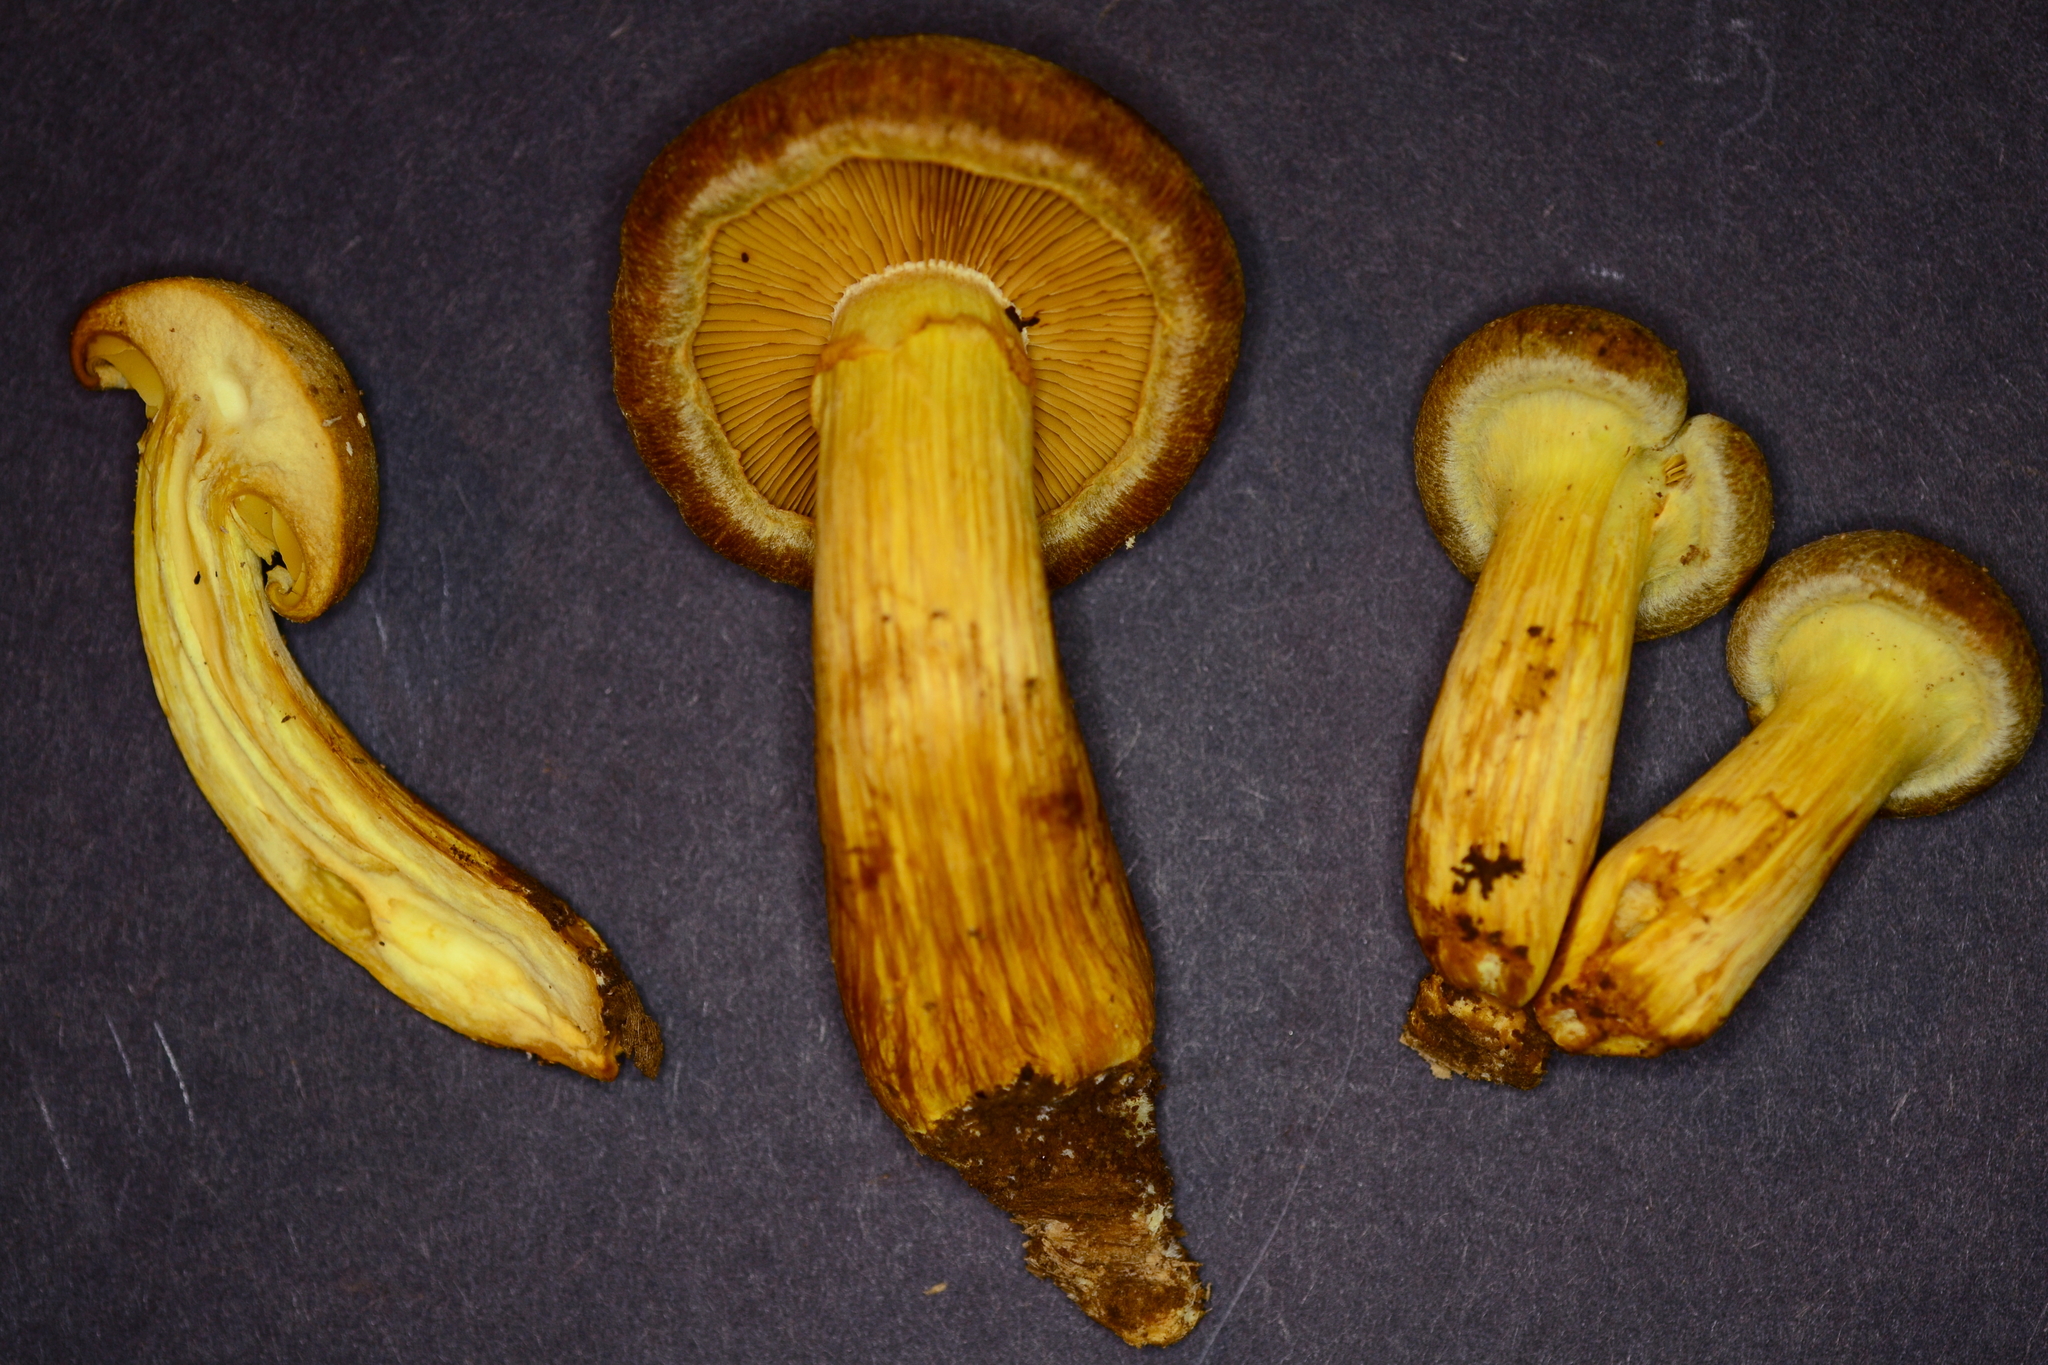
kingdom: Fungi
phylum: Basidiomycota
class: Agaricomycetes
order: Agaricales
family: Hymenogastraceae
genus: Gymnopilus
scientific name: Gymnopilus luteus
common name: Yellow gymnopilus
